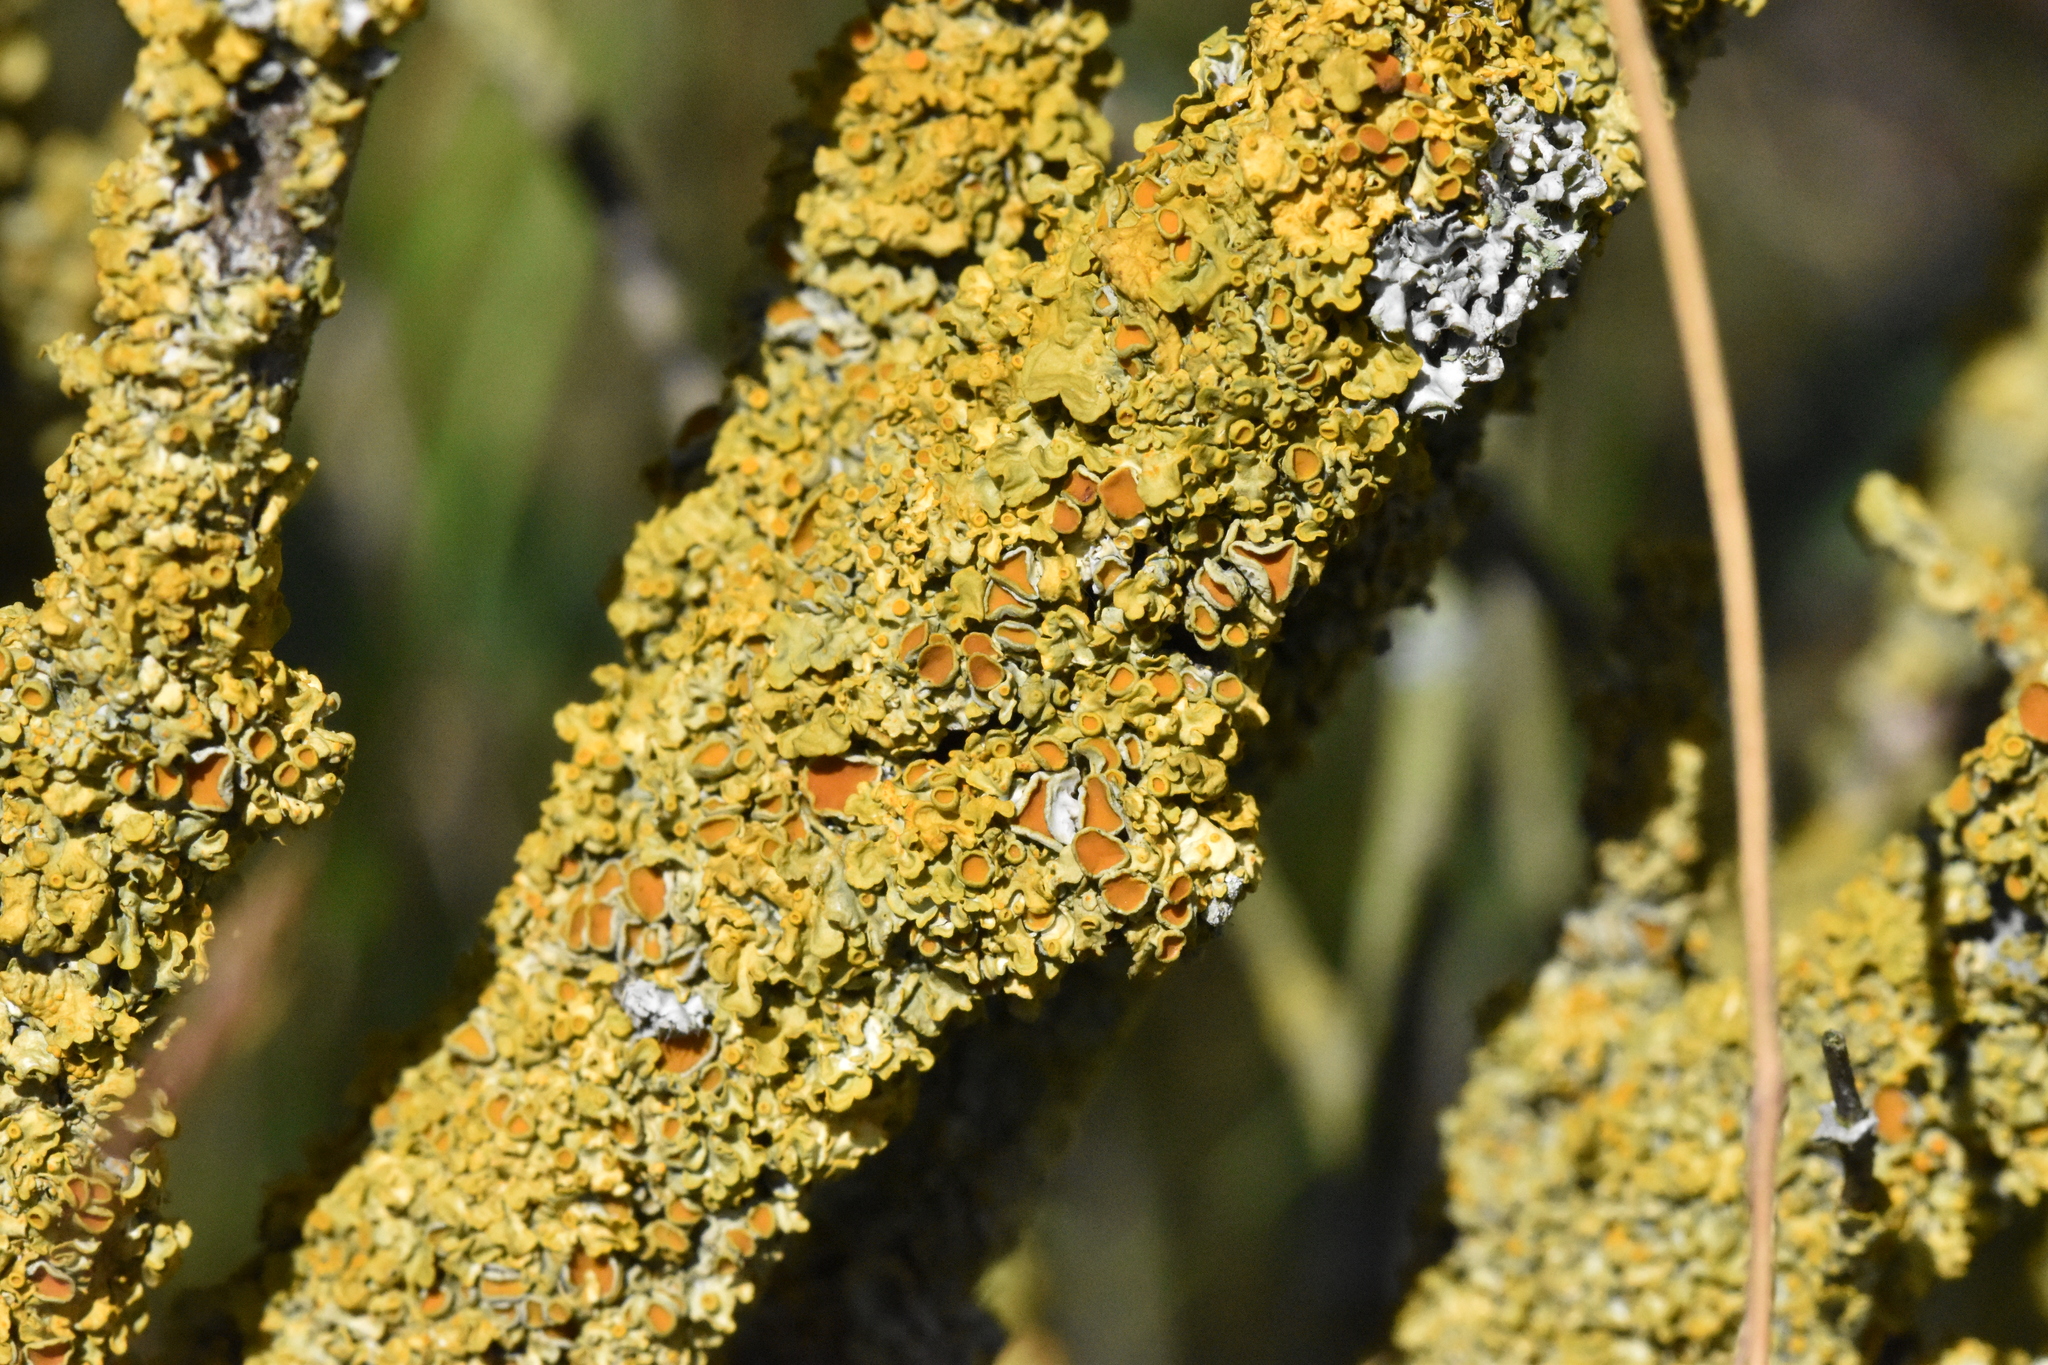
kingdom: Fungi
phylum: Ascomycota
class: Lecanoromycetes
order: Teloschistales
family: Teloschistaceae
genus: Xanthoria
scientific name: Xanthoria parietina
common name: Common orange lichen
